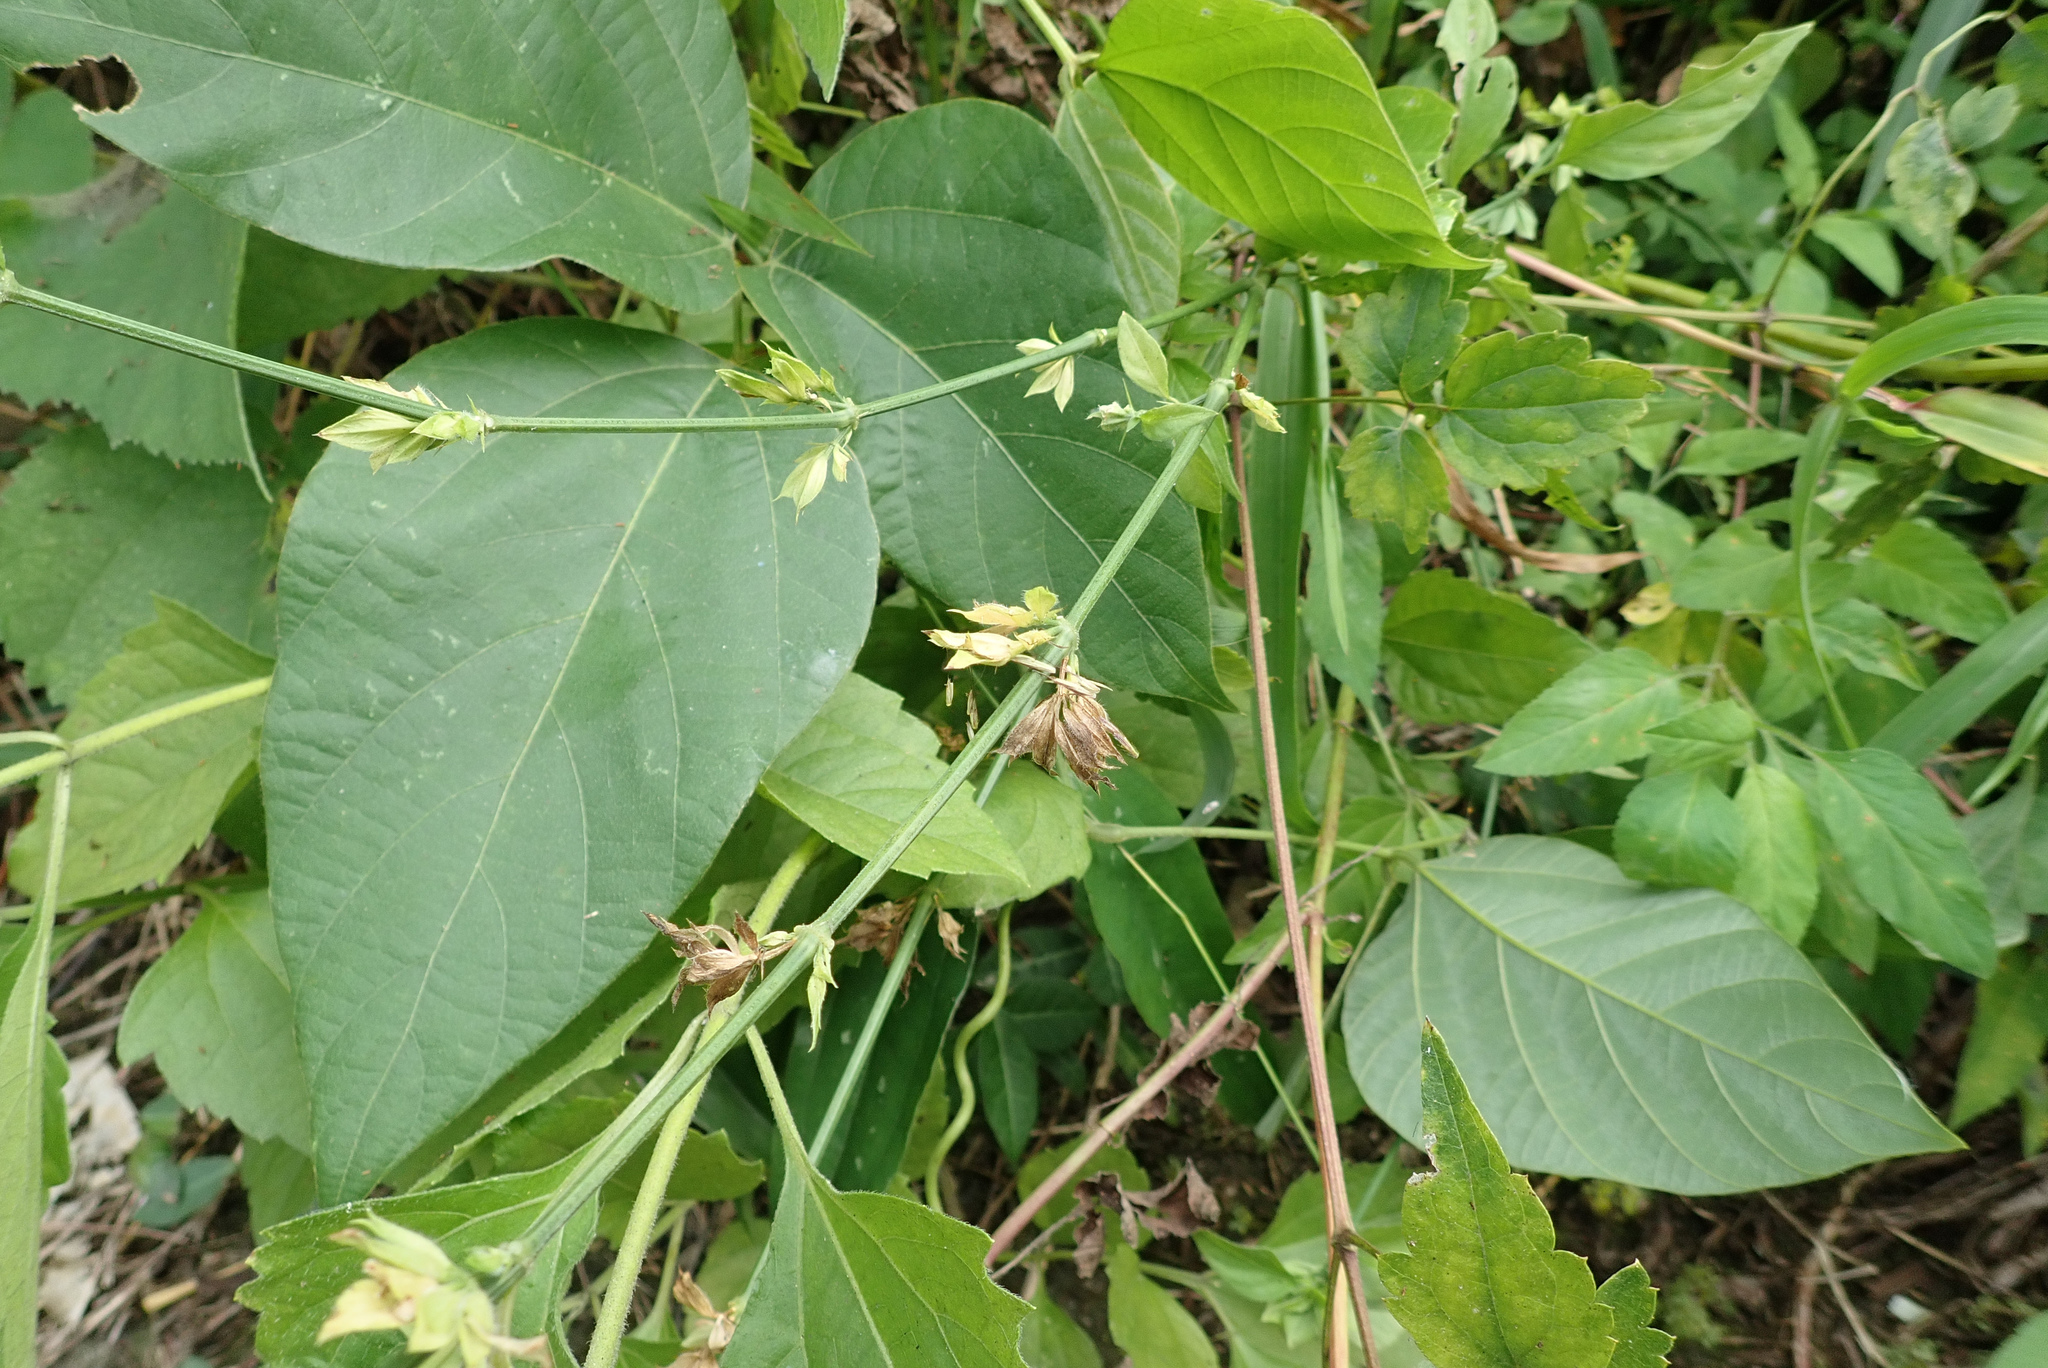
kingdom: Plantae
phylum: Tracheophyta
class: Magnoliopsida
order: Lamiales
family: Acanthaceae
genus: Dicliptera
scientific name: Dicliptera chinensis
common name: Chinese foldwing
